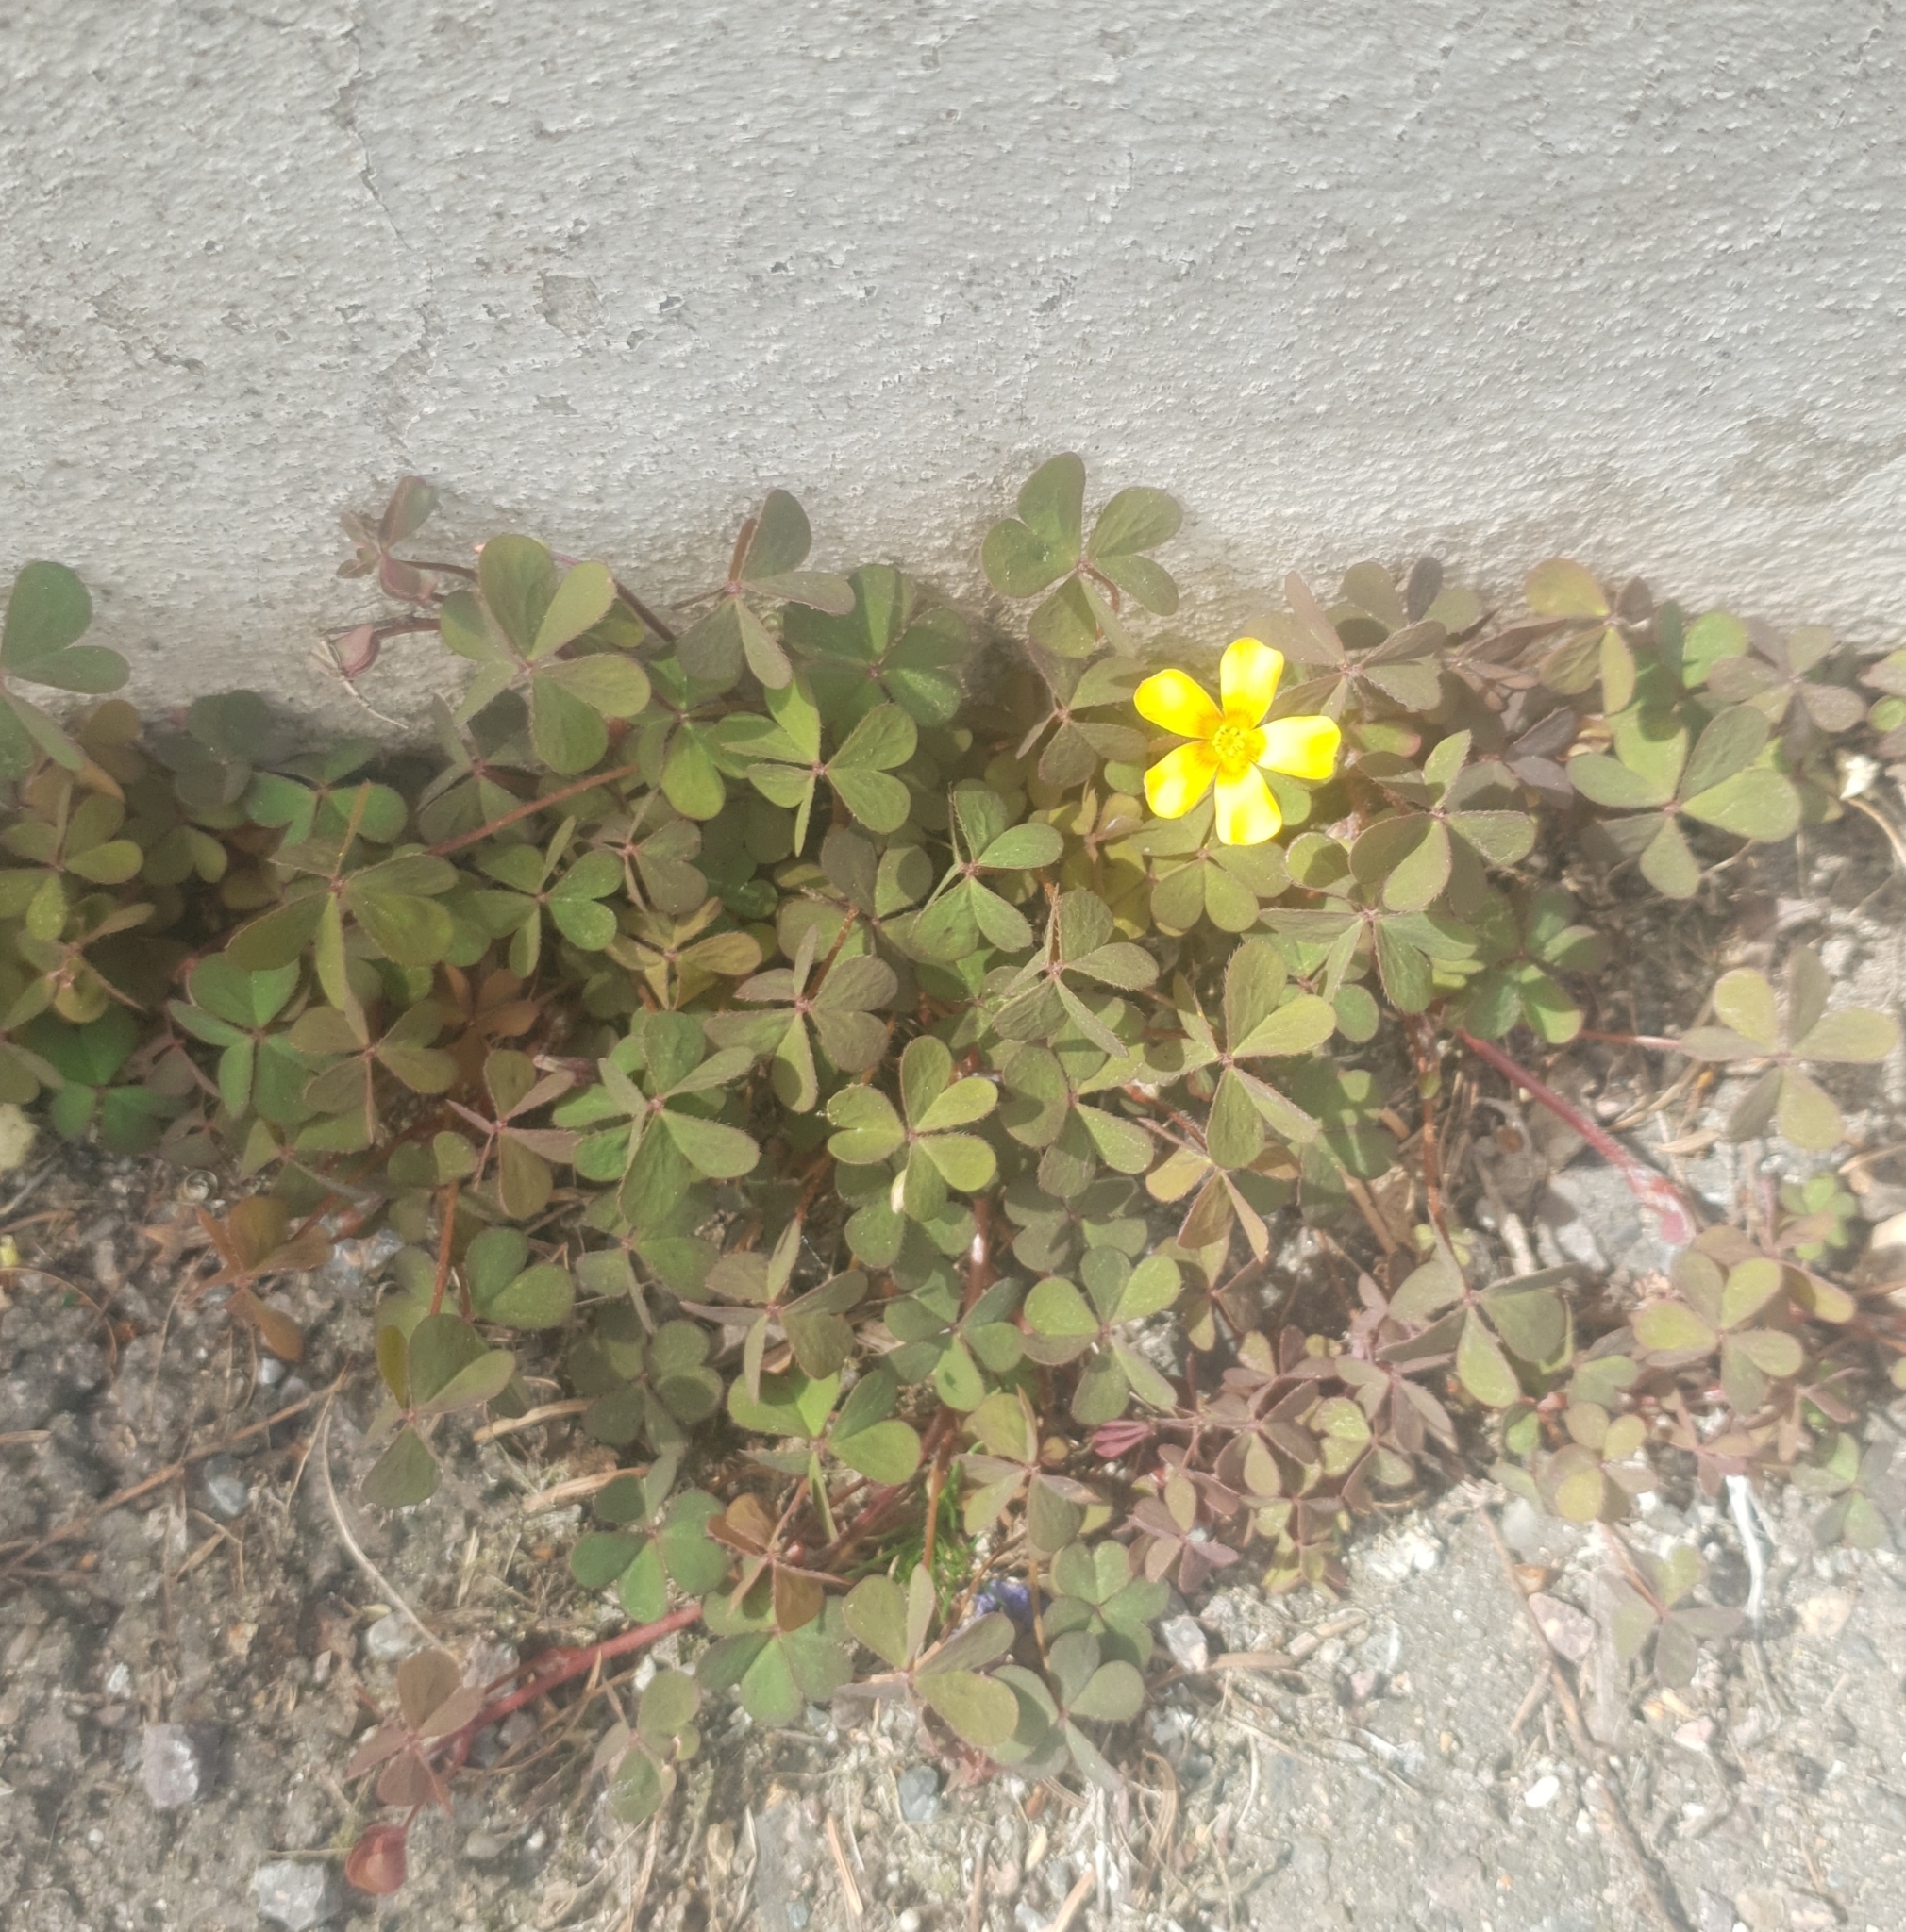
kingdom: Plantae
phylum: Tracheophyta
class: Magnoliopsida
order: Oxalidales
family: Oxalidaceae
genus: Oxalis
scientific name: Oxalis corniculata
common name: Procumbent yellow-sorrel
